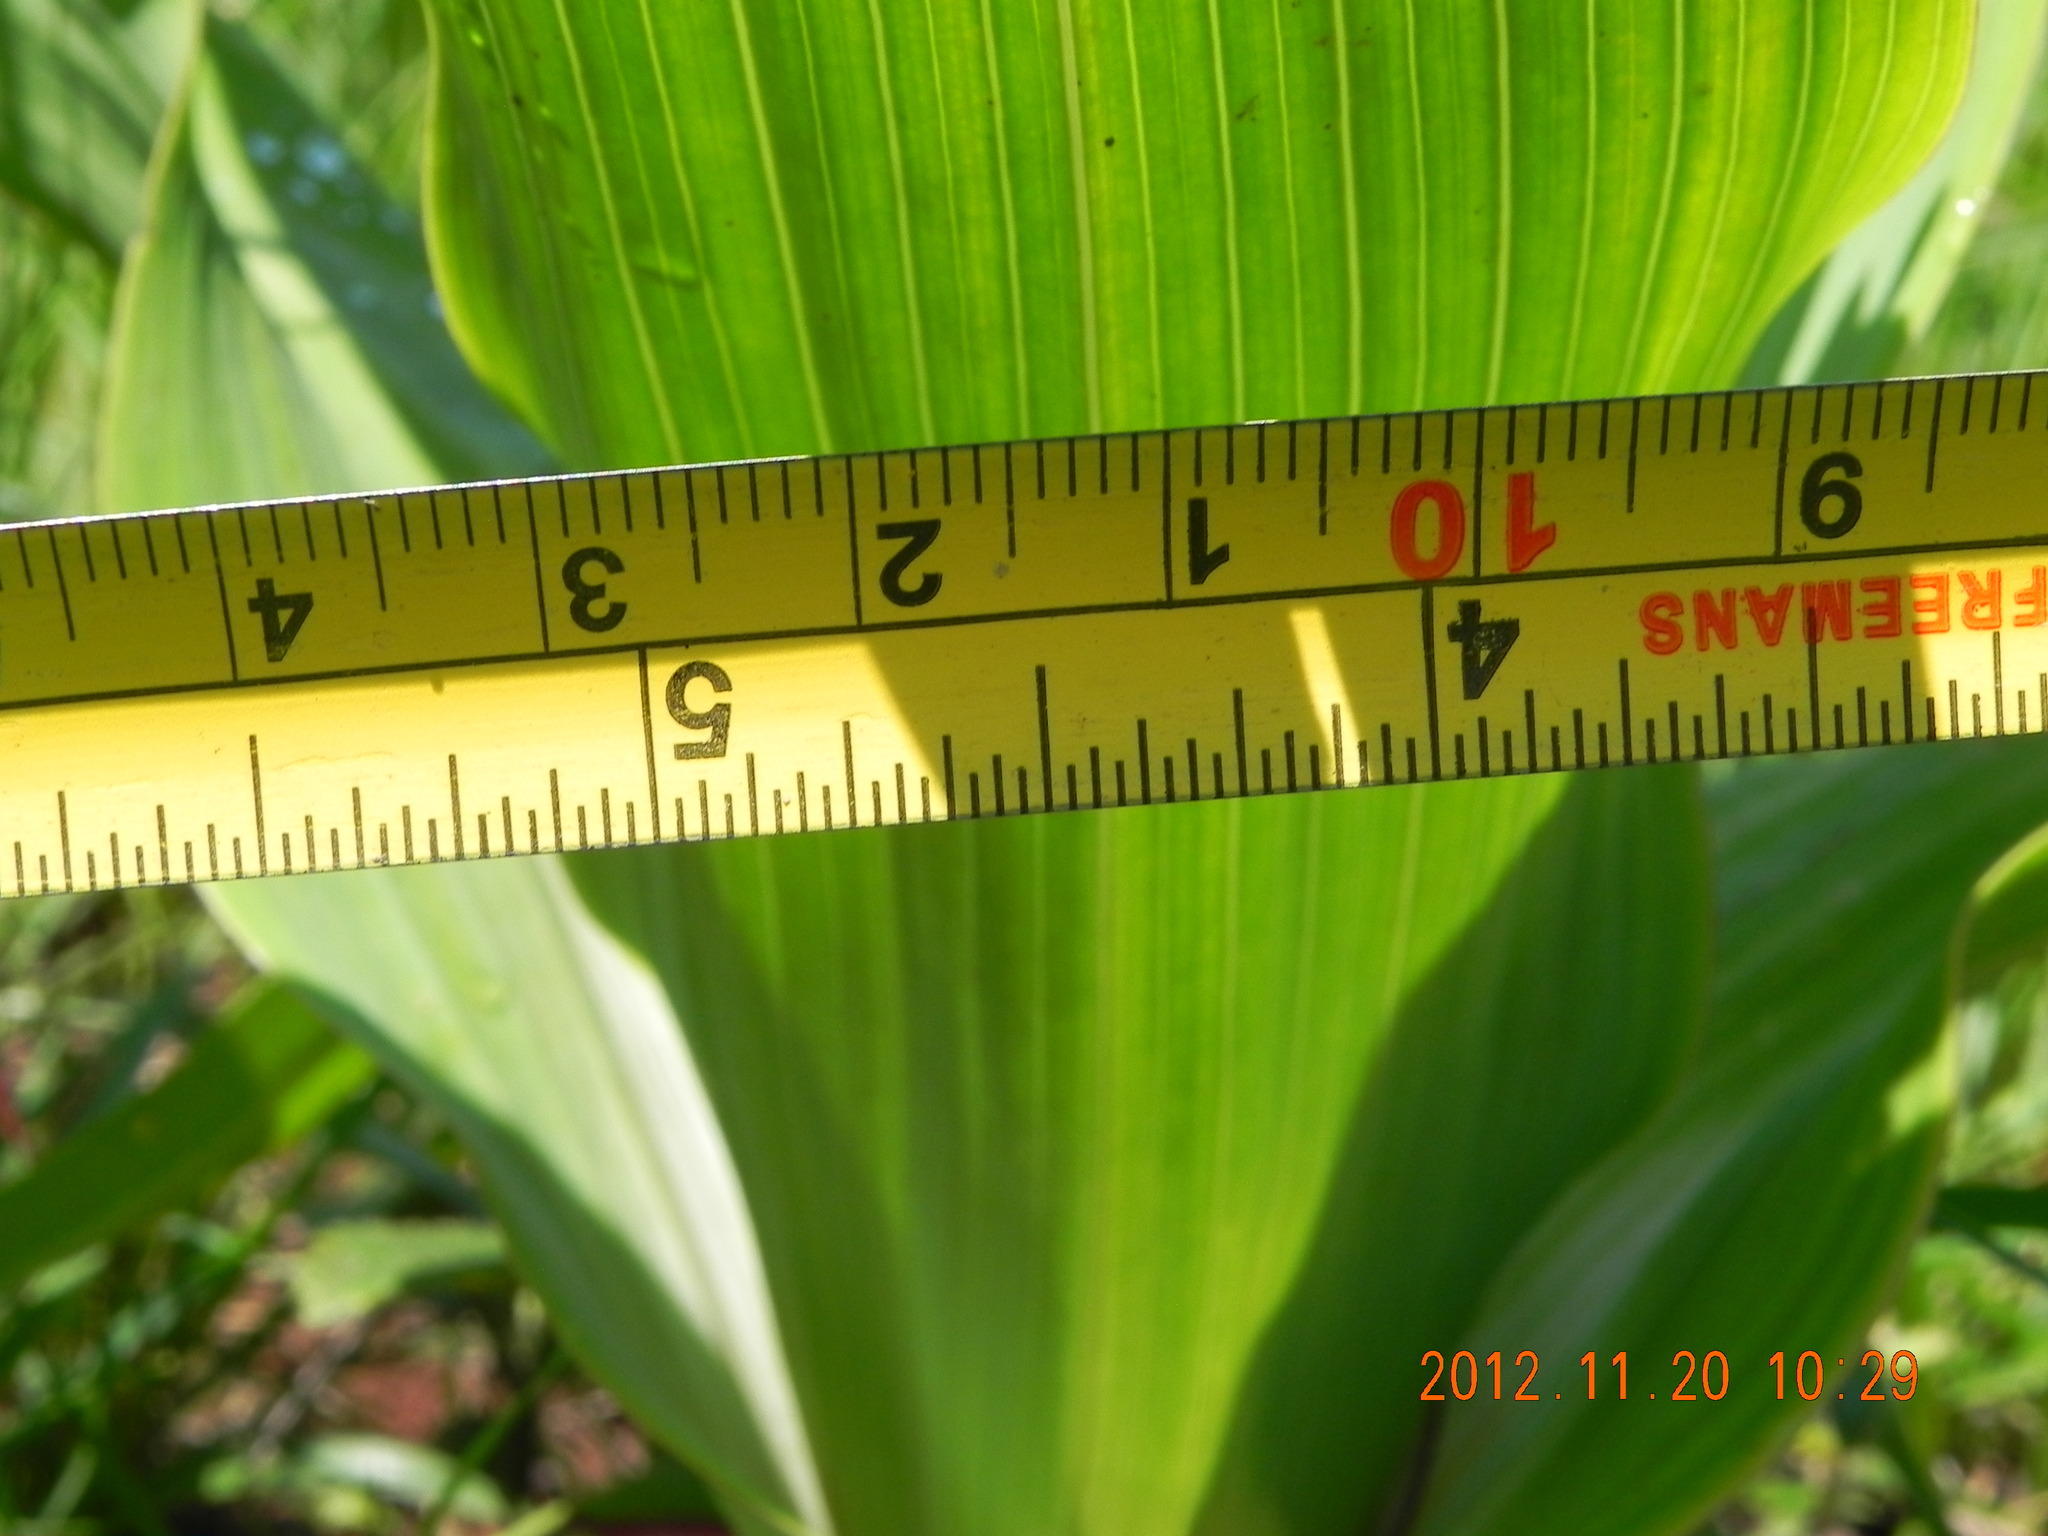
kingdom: Plantae
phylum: Tracheophyta
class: Liliopsida
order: Asparagales
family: Hypoxidaceae
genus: Hypoxis
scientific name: Hypoxis colchicifolia
